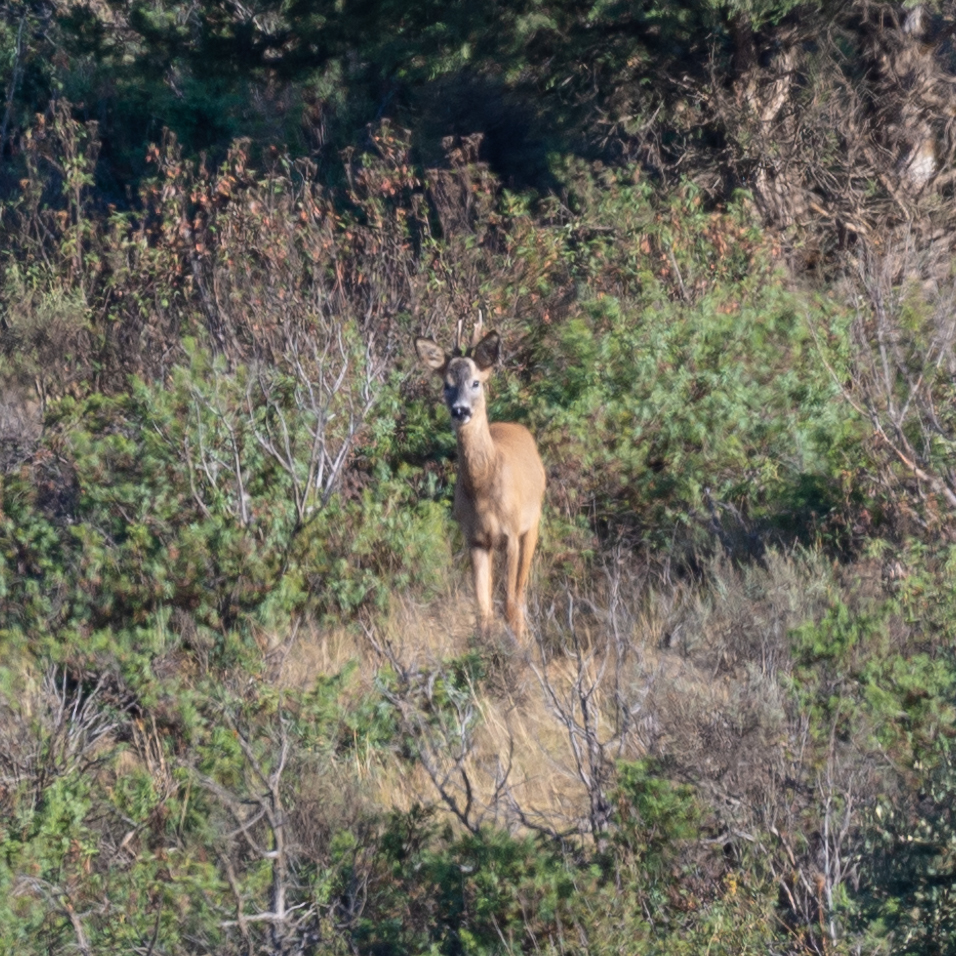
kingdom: Animalia
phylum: Chordata
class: Mammalia
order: Artiodactyla
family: Cervidae
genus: Capreolus
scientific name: Capreolus capreolus
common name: Western roe deer
